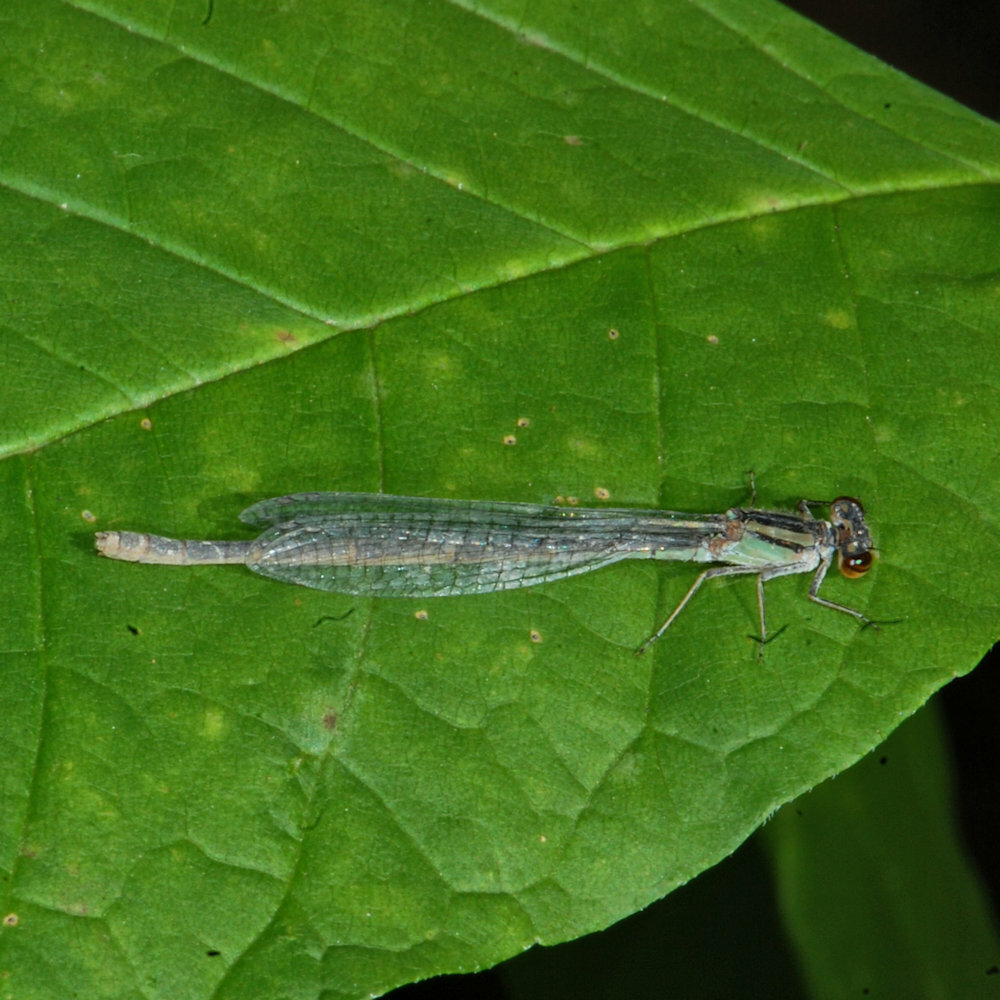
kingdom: Animalia
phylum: Arthropoda
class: Insecta
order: Odonata
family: Coenagrionidae
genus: Ischnura
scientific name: Ischnura verticalis
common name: Eastern forktail
